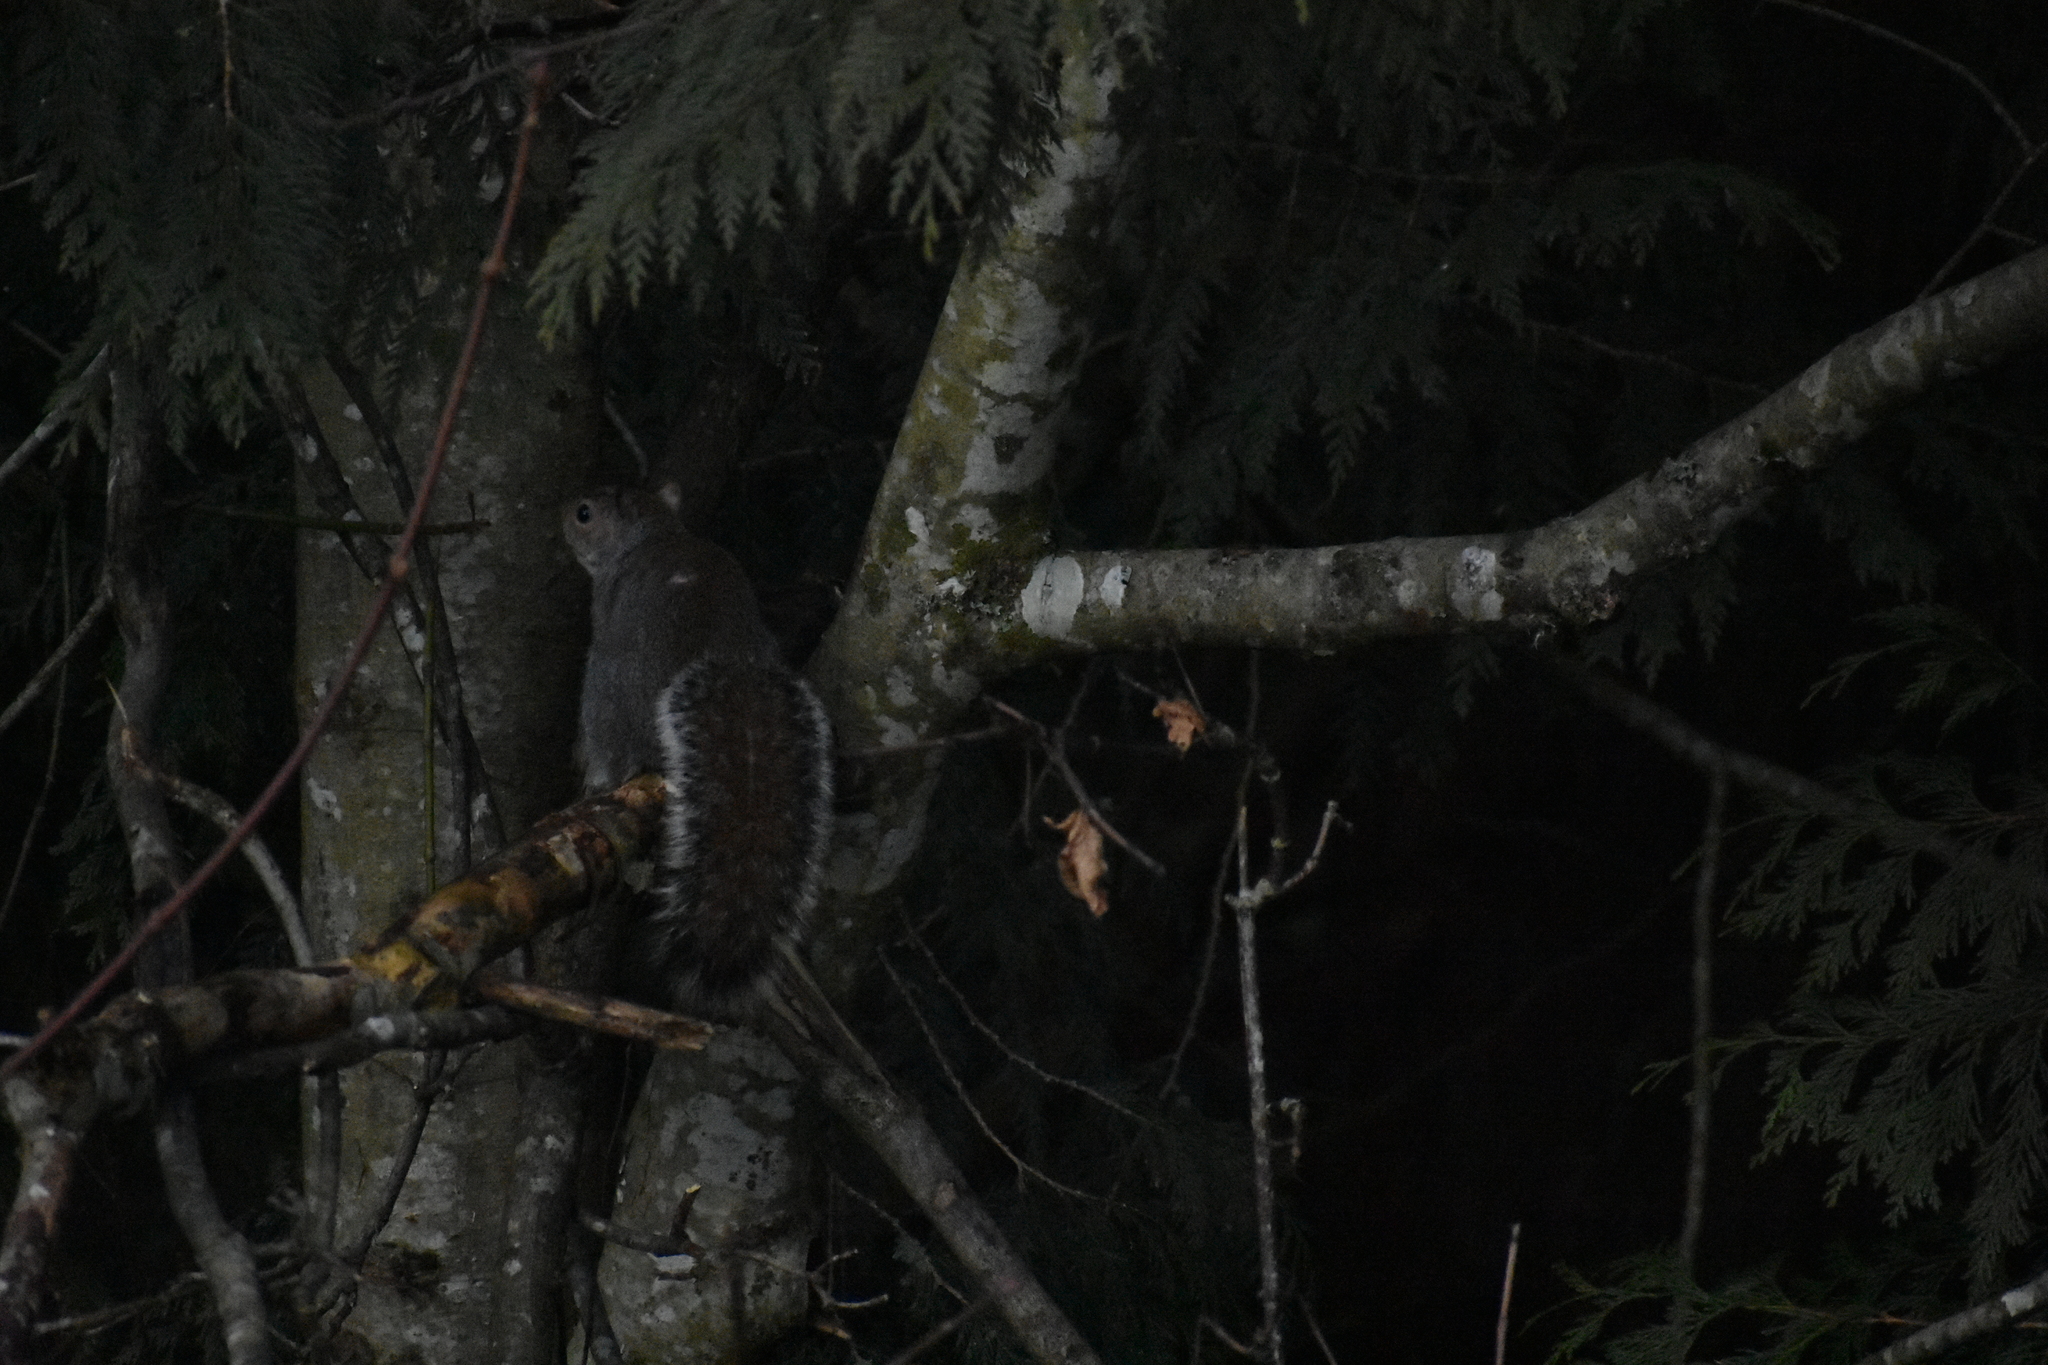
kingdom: Animalia
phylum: Chordata
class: Mammalia
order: Rodentia
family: Sciuridae
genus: Sciurus
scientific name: Sciurus carolinensis
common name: Eastern gray squirrel
